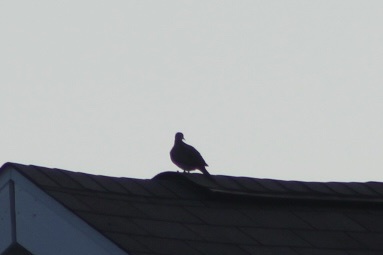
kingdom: Animalia
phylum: Chordata
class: Aves
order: Columbiformes
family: Columbidae
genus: Zenaida
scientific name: Zenaida macroura
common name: Mourning dove
